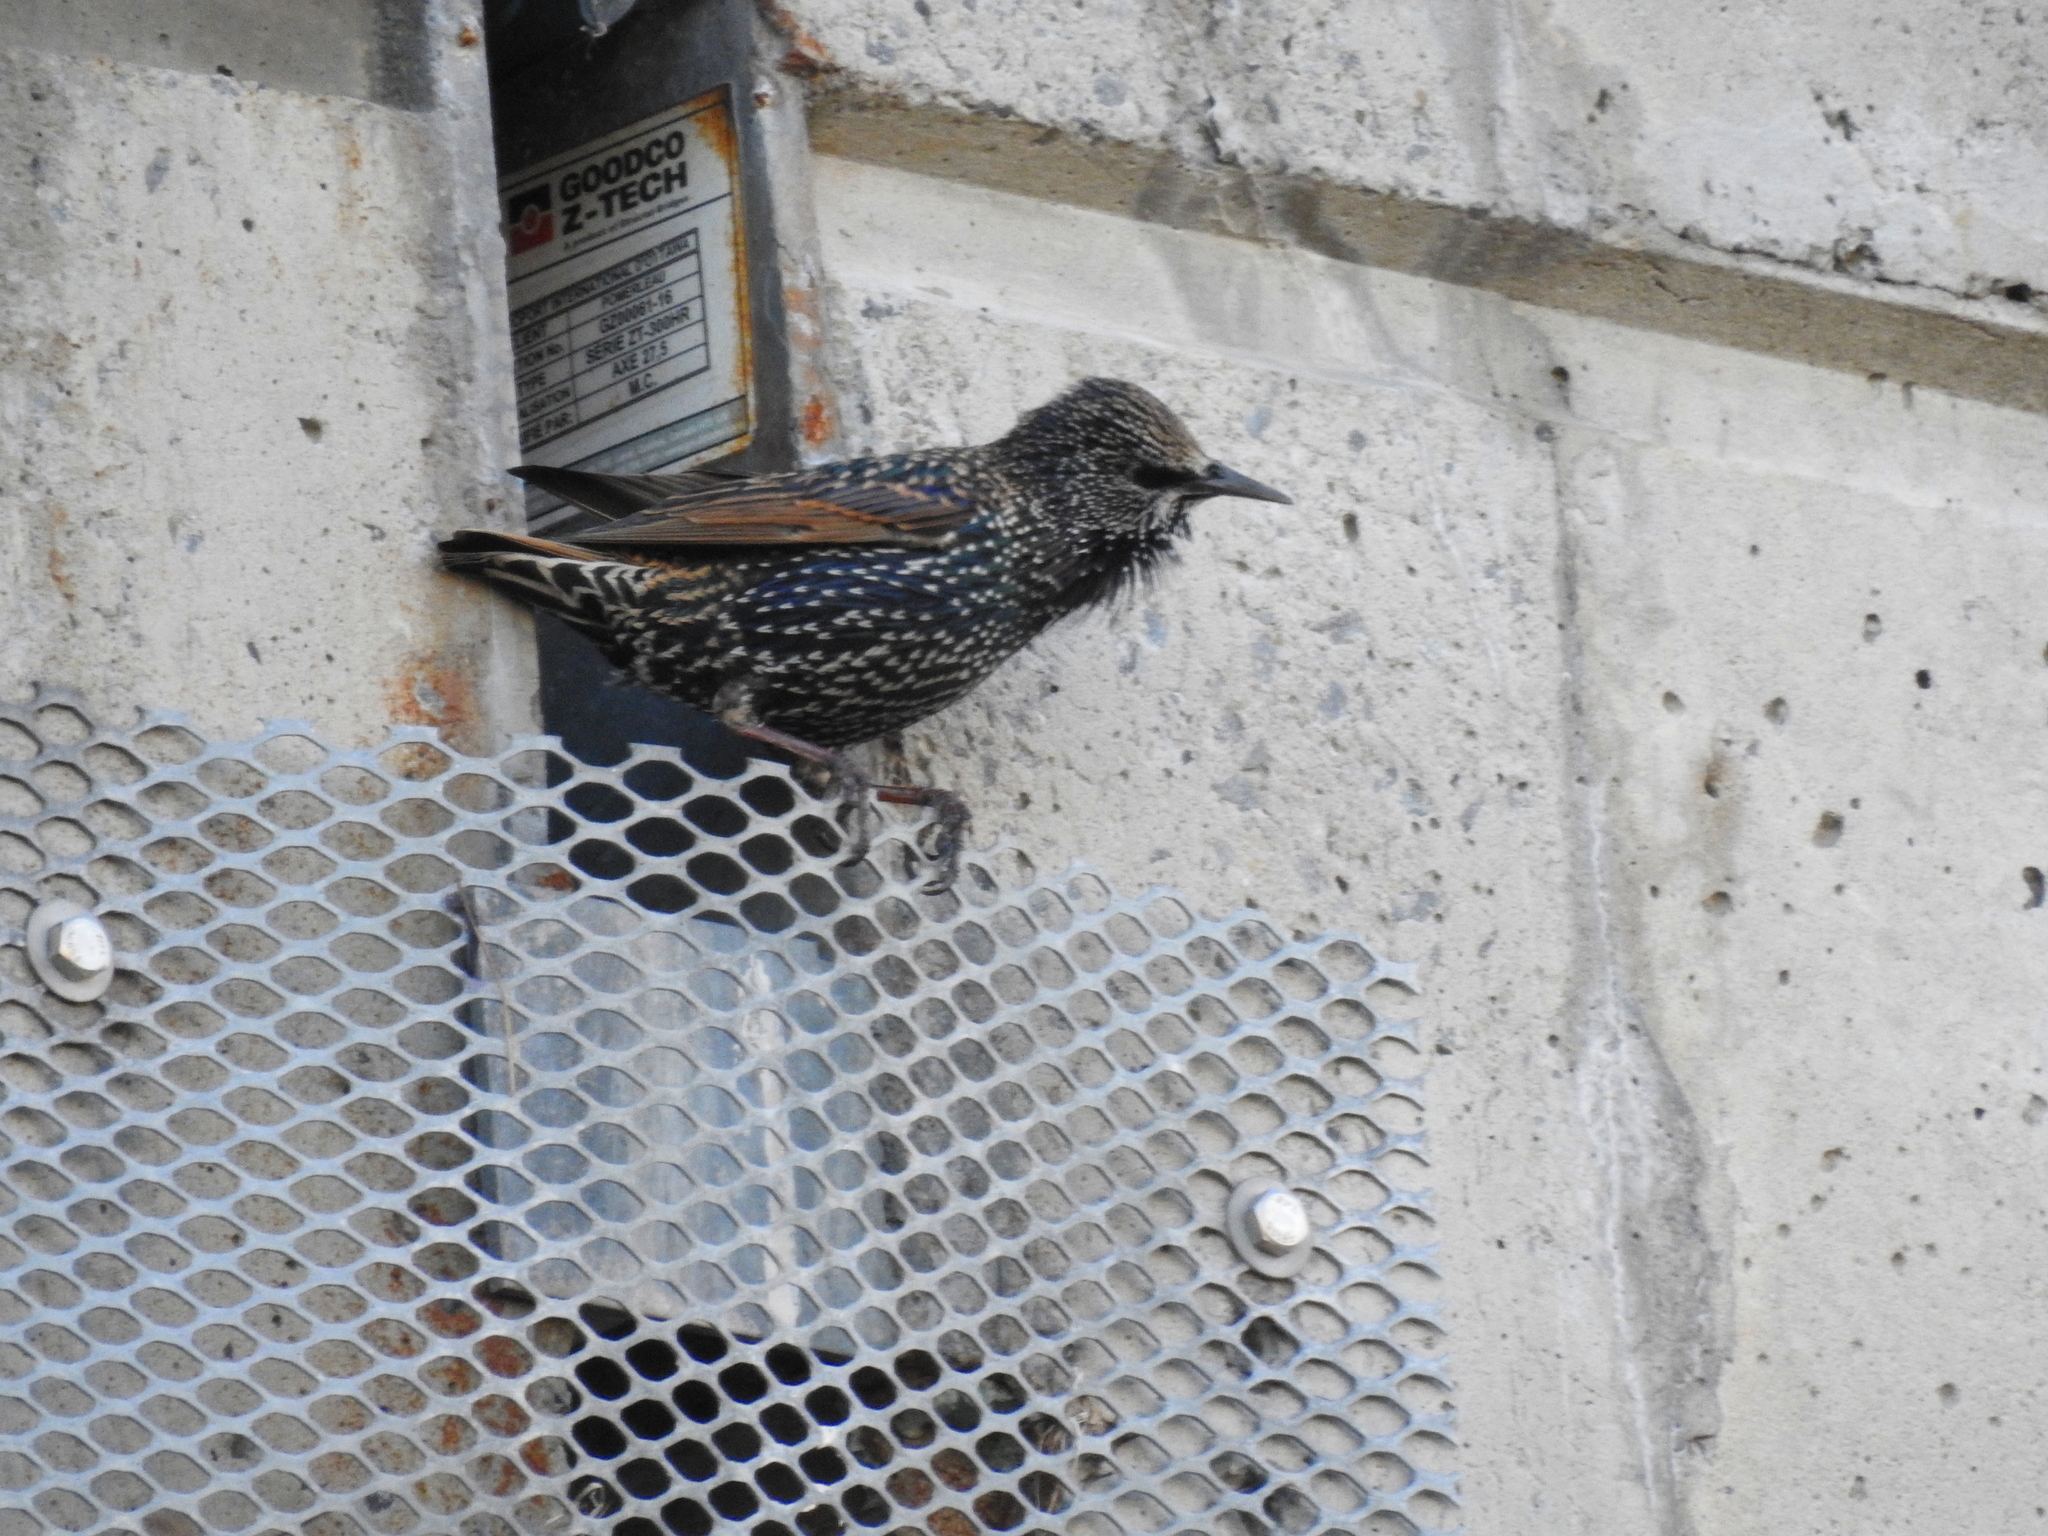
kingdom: Animalia
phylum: Chordata
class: Aves
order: Passeriformes
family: Sturnidae
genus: Sturnus
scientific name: Sturnus vulgaris
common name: Common starling
